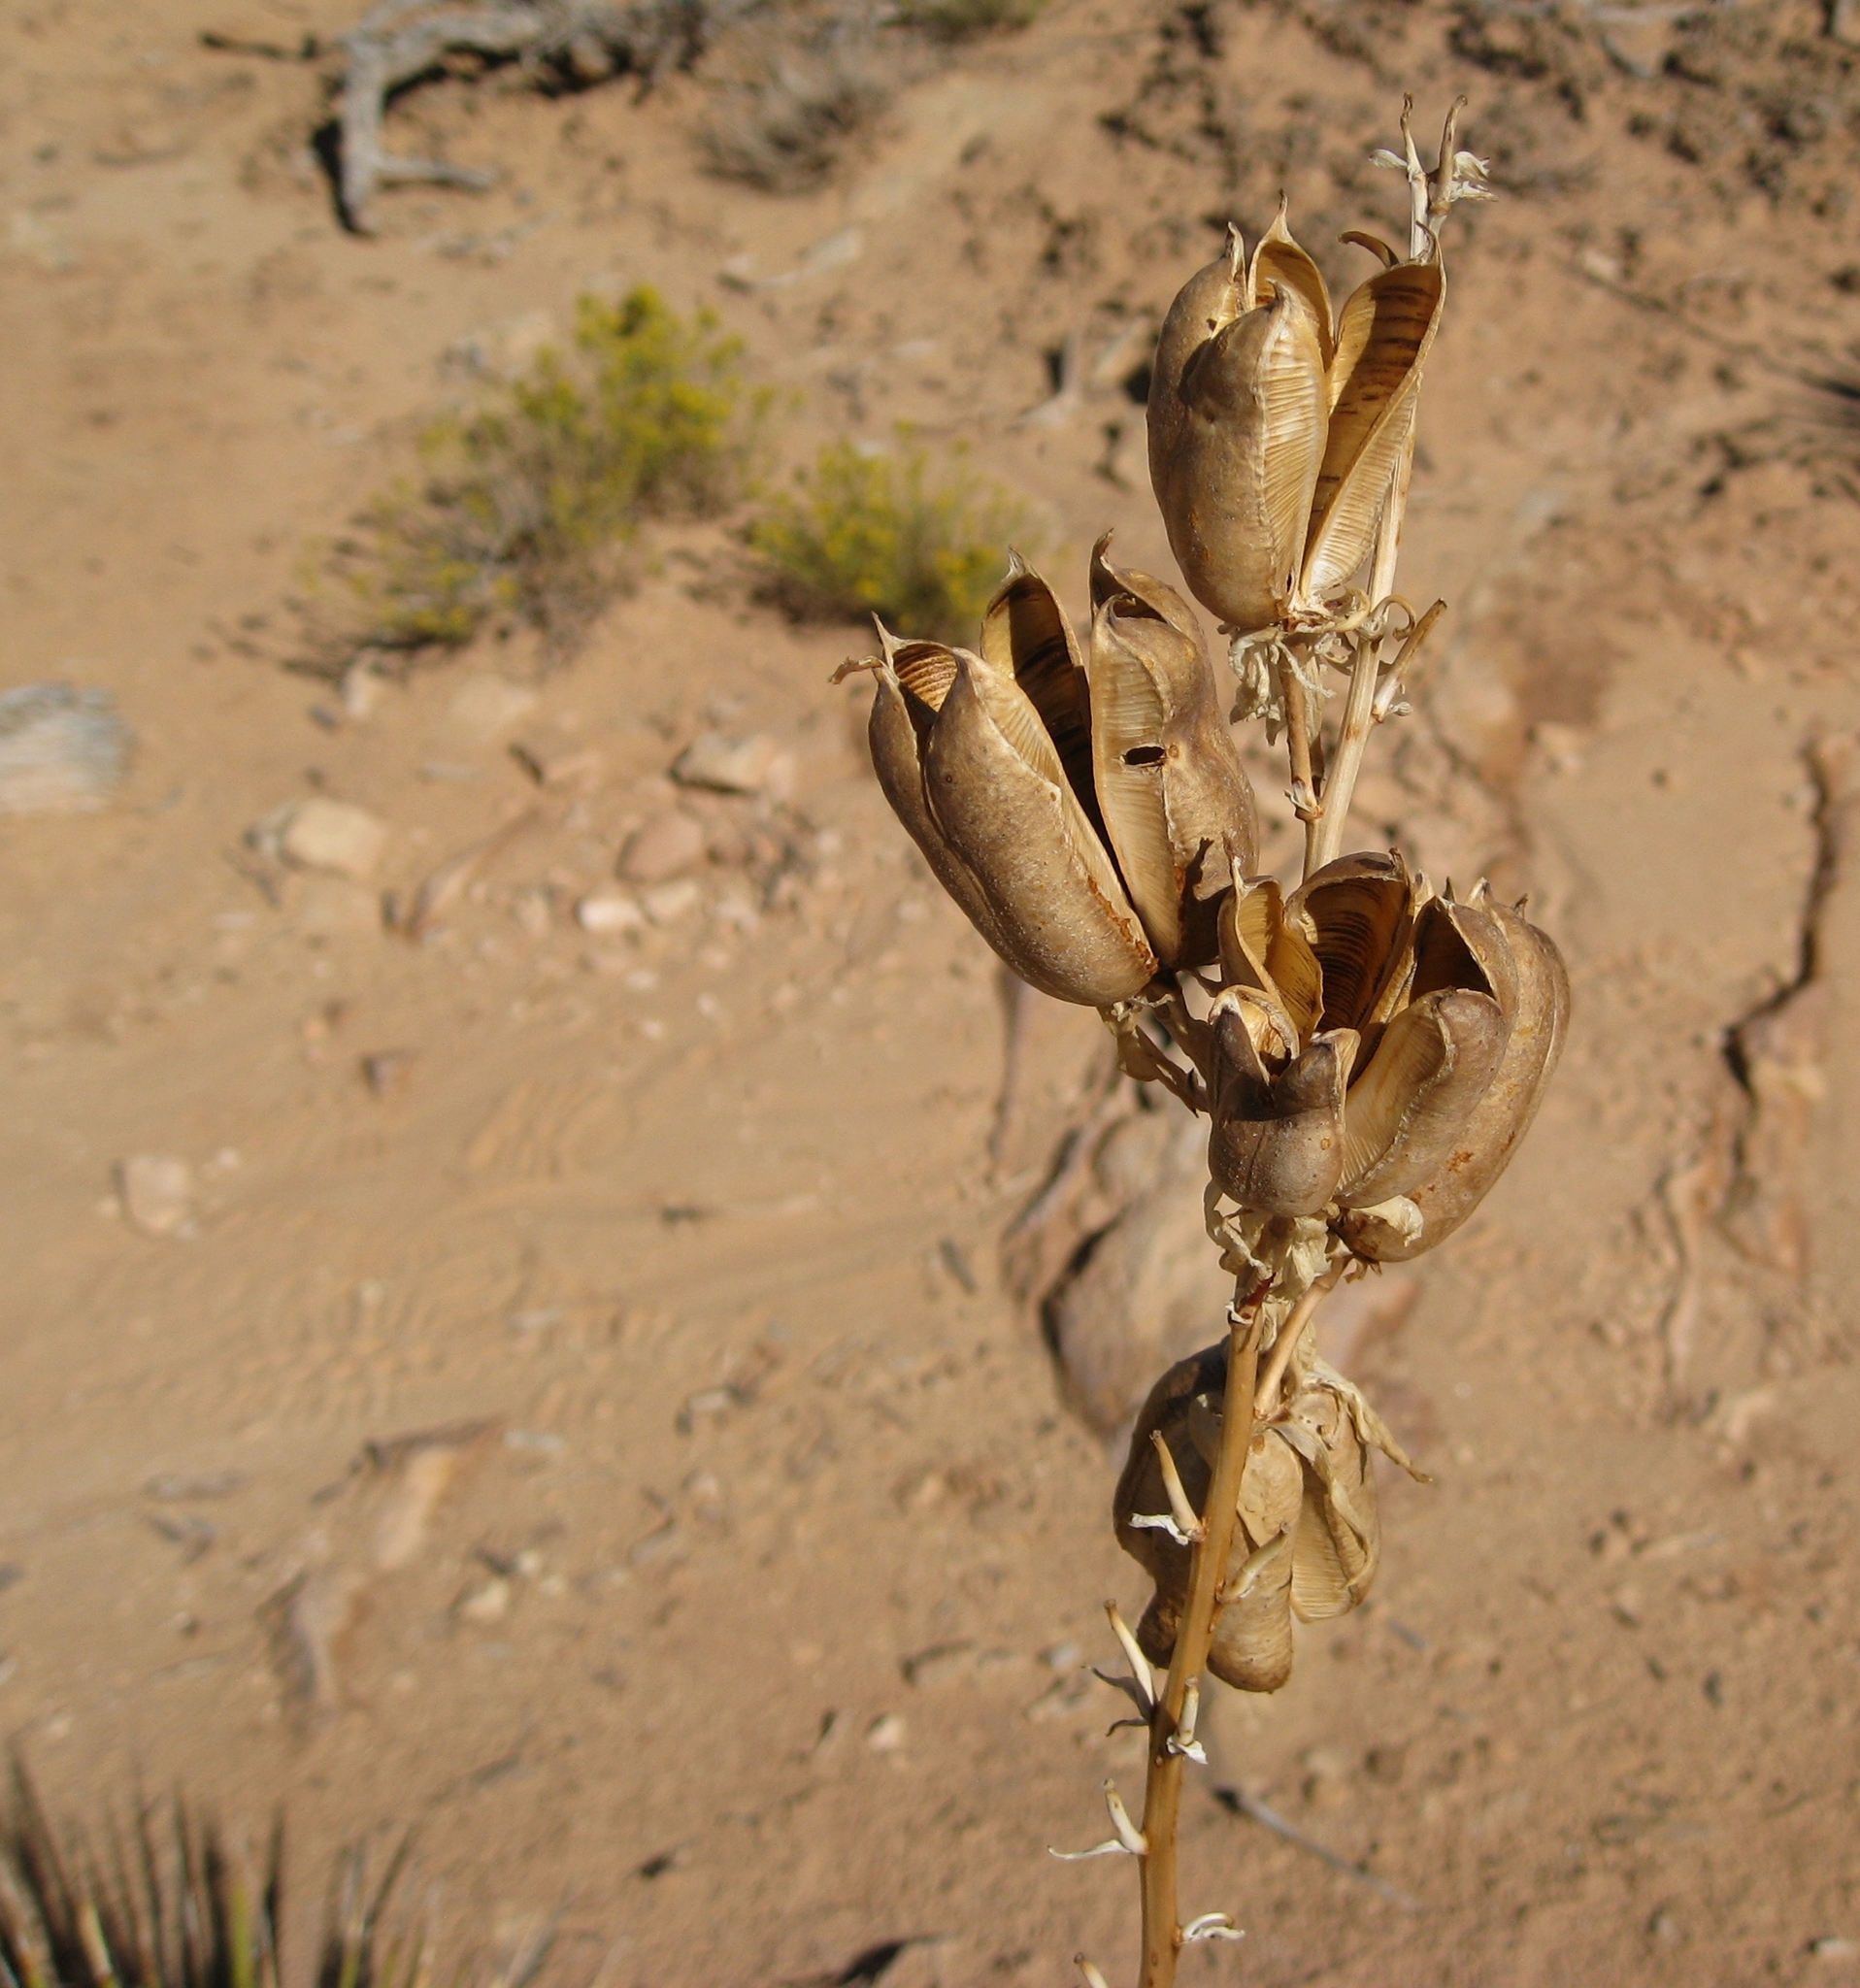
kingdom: Plantae
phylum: Tracheophyta
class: Liliopsida
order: Asparagales
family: Asparagaceae
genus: Yucca
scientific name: Yucca angustissima
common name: Narrowleaf yucca
